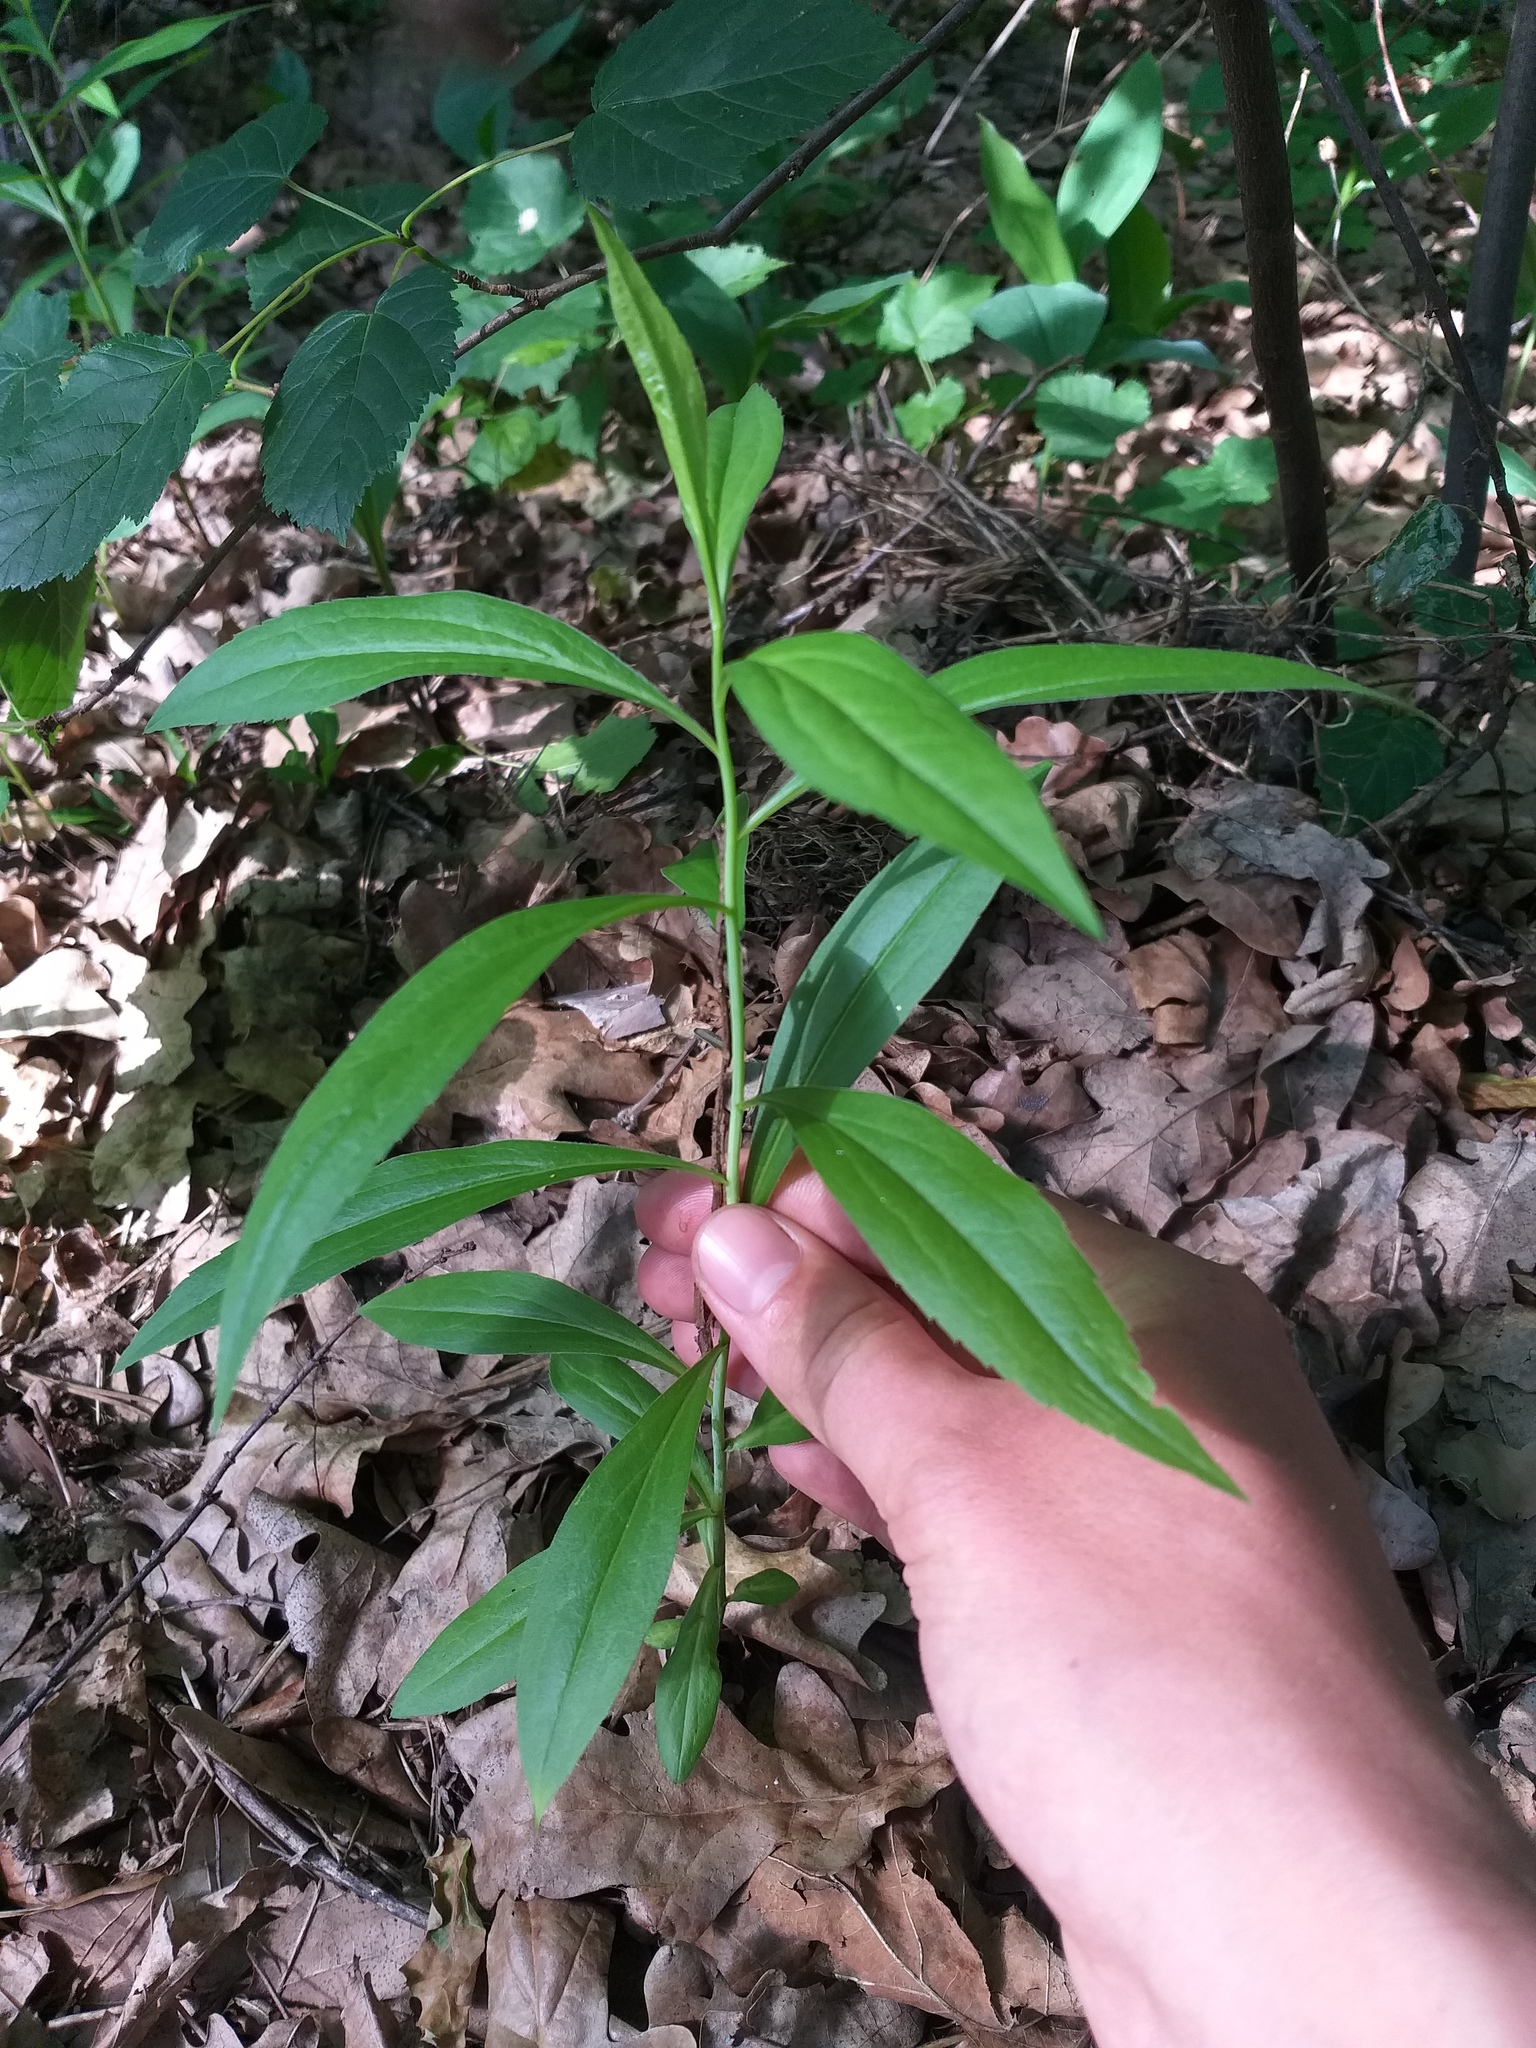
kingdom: Plantae
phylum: Tracheophyta
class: Magnoliopsida
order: Asterales
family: Asteraceae
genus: Solidago
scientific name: Solidago gigantea
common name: Giant goldenrod
